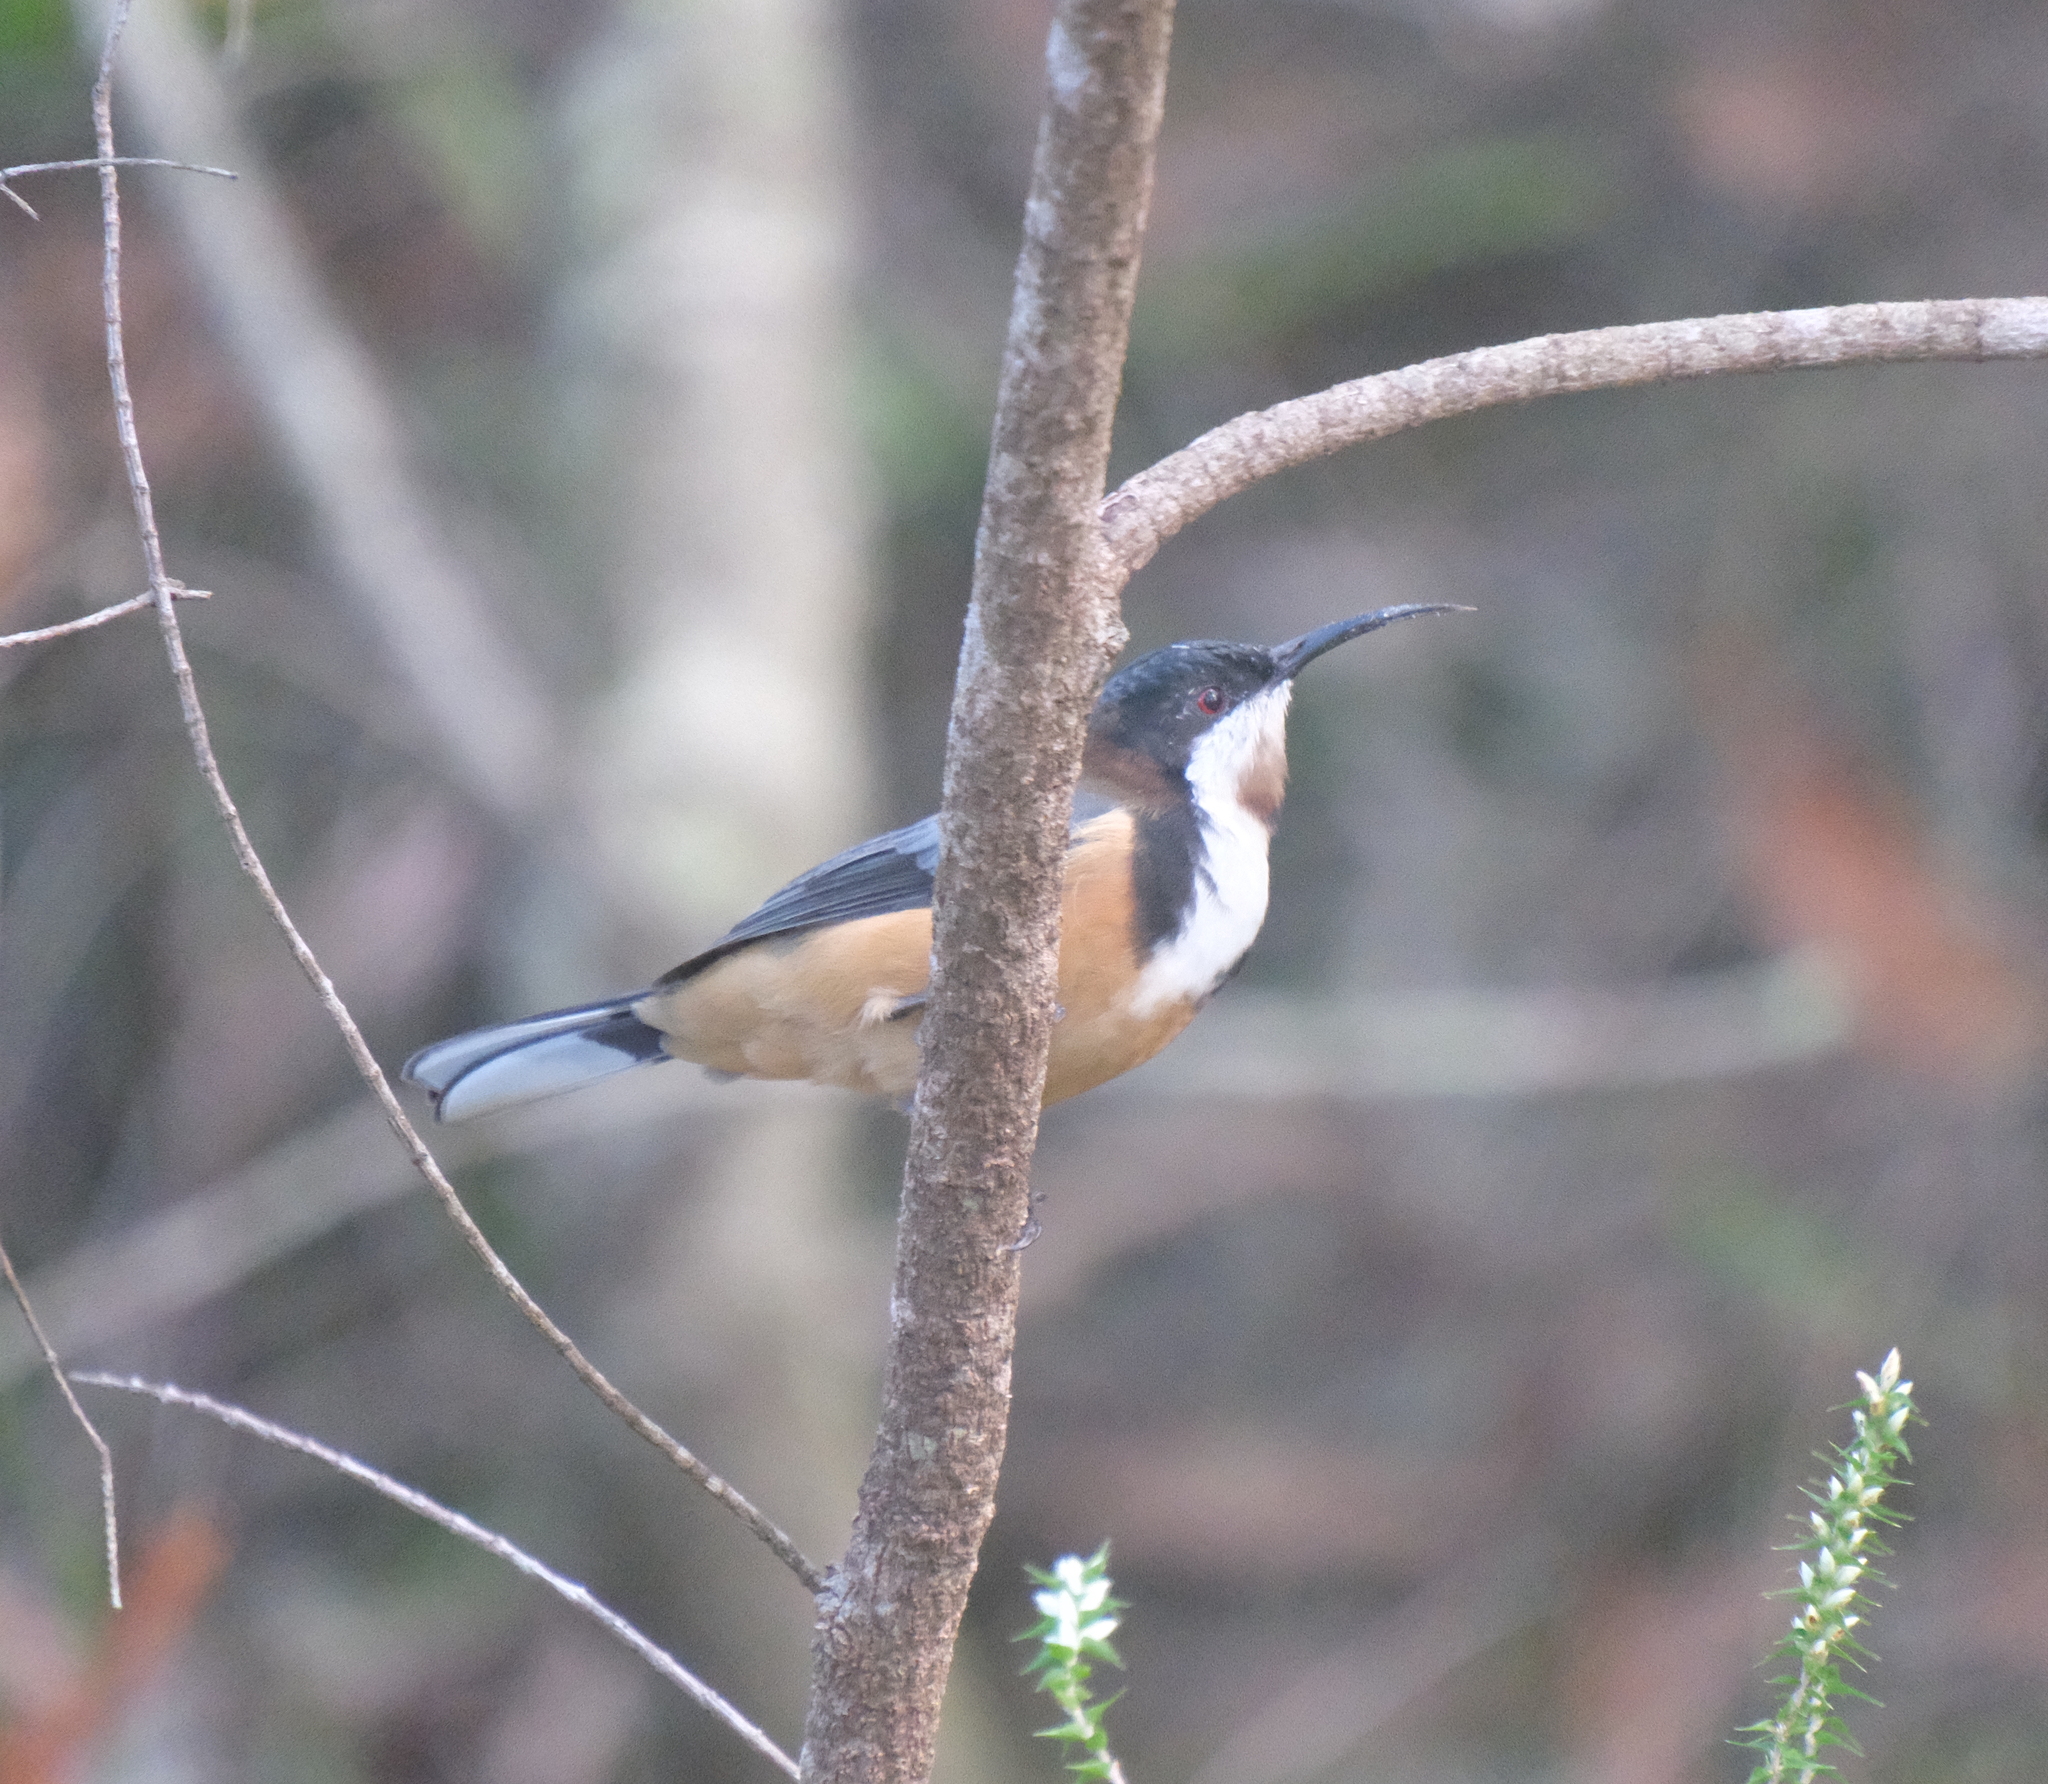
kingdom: Animalia
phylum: Chordata
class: Aves
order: Passeriformes
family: Meliphagidae
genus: Acanthorhynchus
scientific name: Acanthorhynchus tenuirostris
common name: Eastern spinebill
